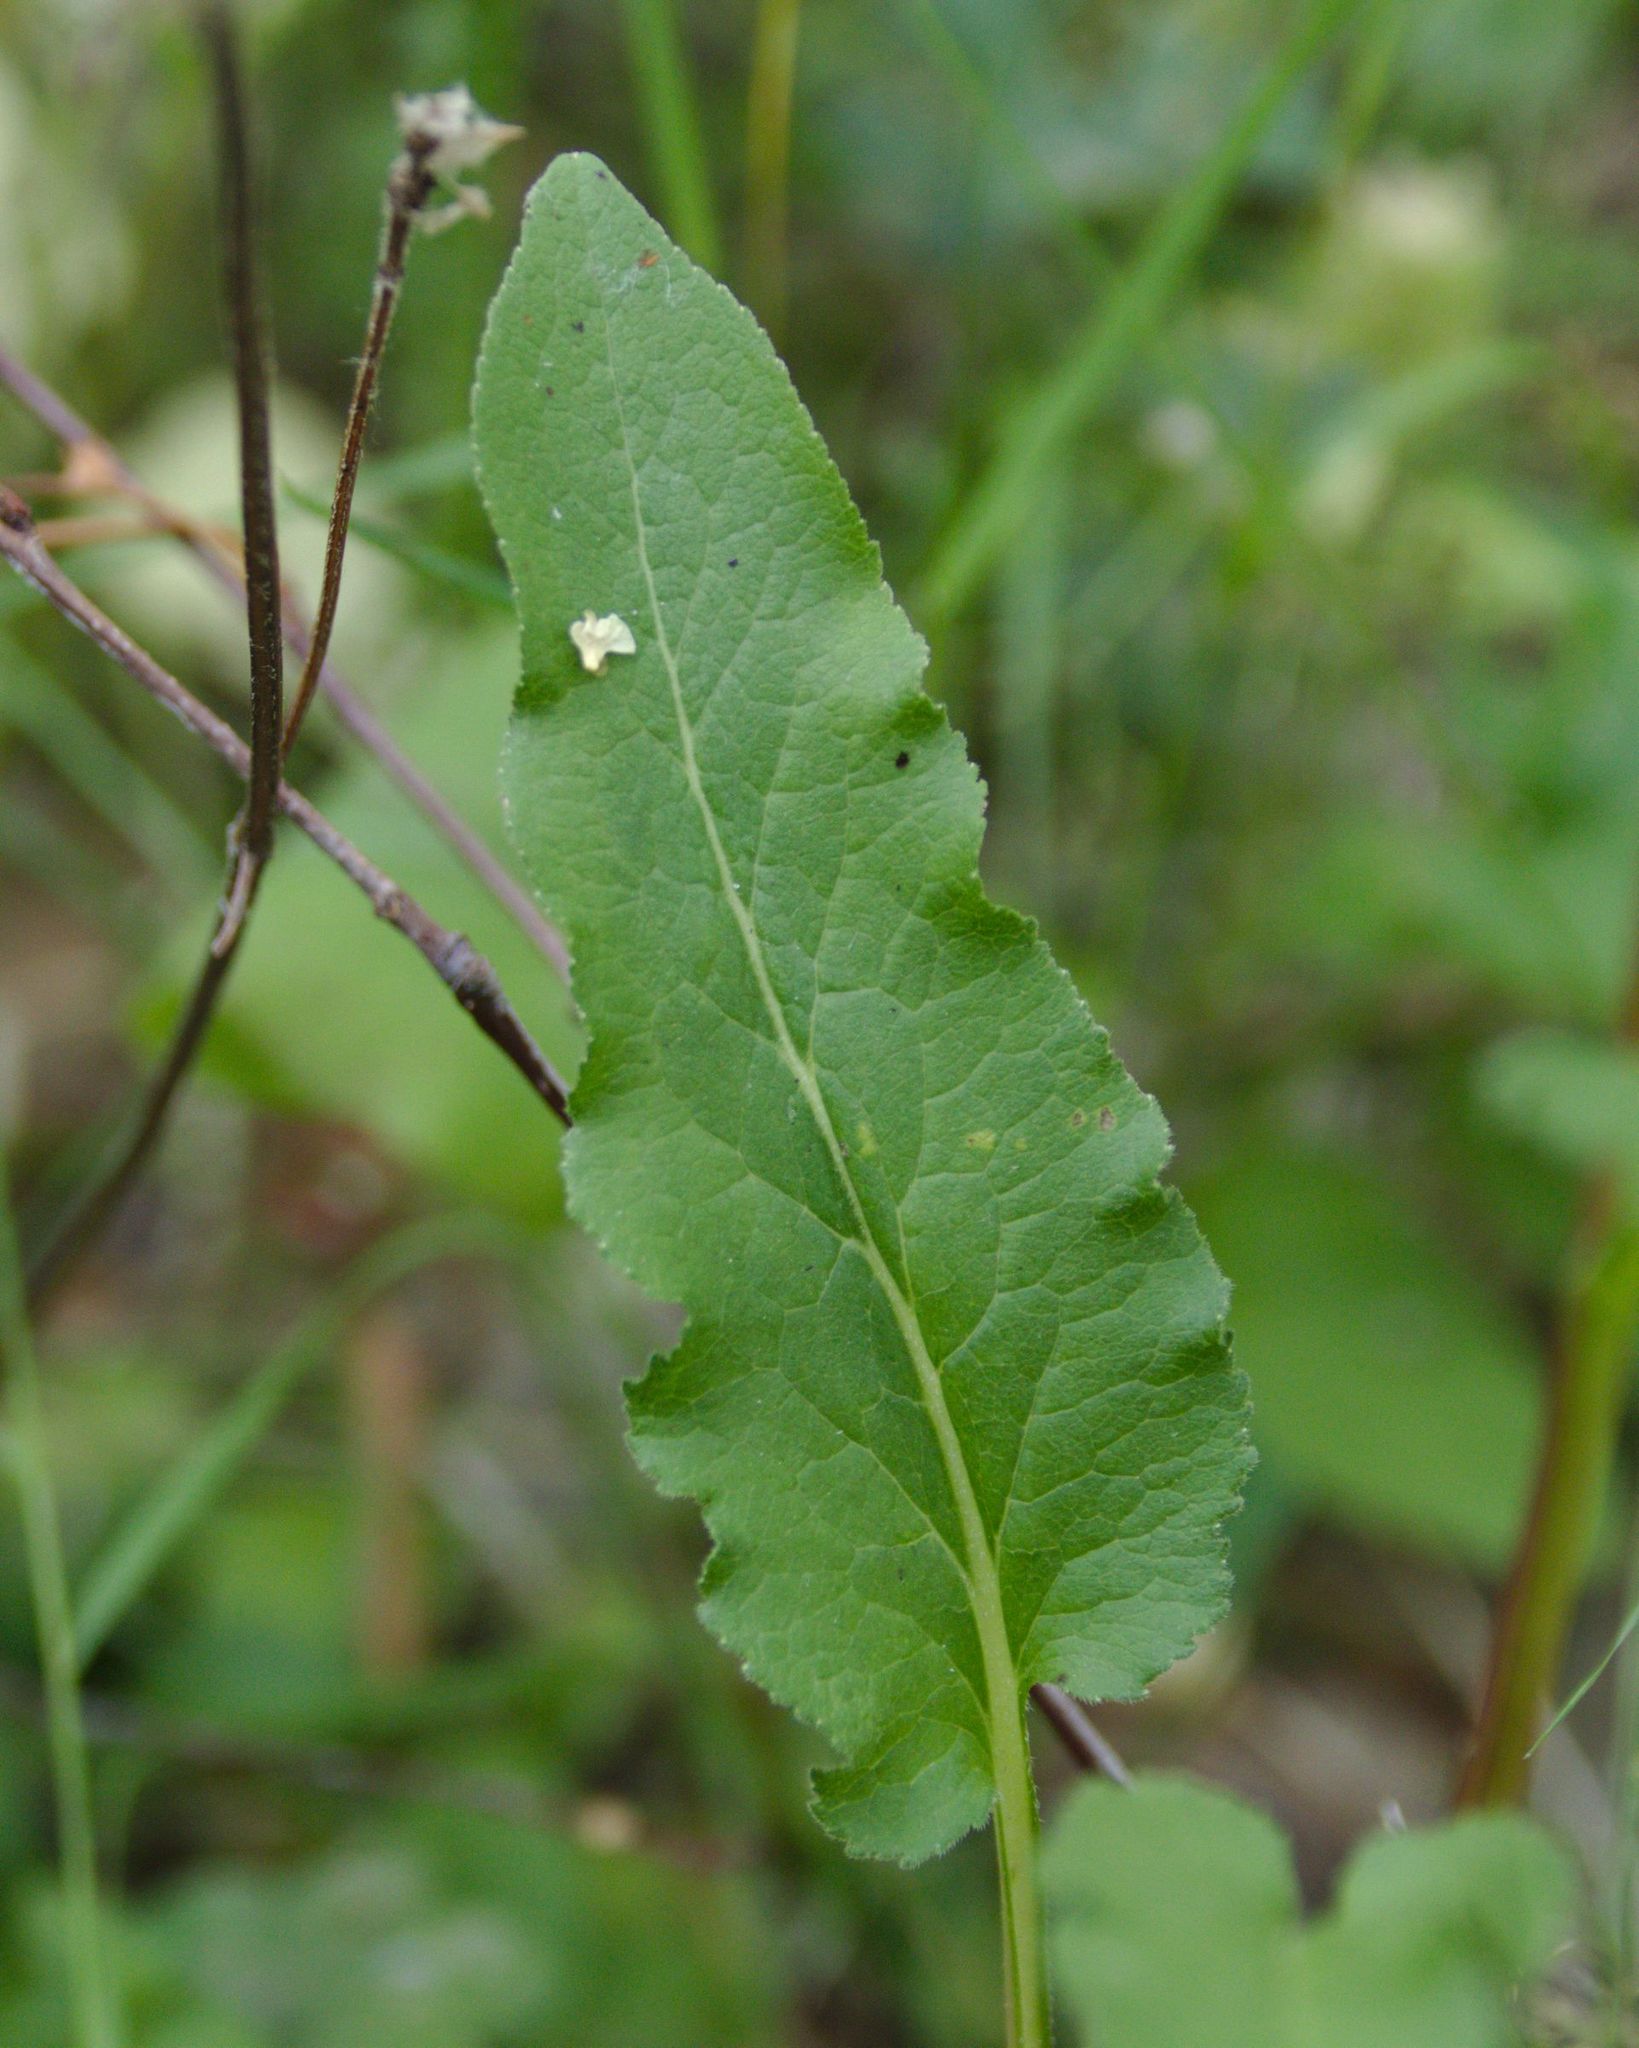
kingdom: Plantae
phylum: Tracheophyta
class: Magnoliopsida
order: Asterales
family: Campanulaceae
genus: Campanula
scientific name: Campanula glomerata
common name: Clustered bellflower
